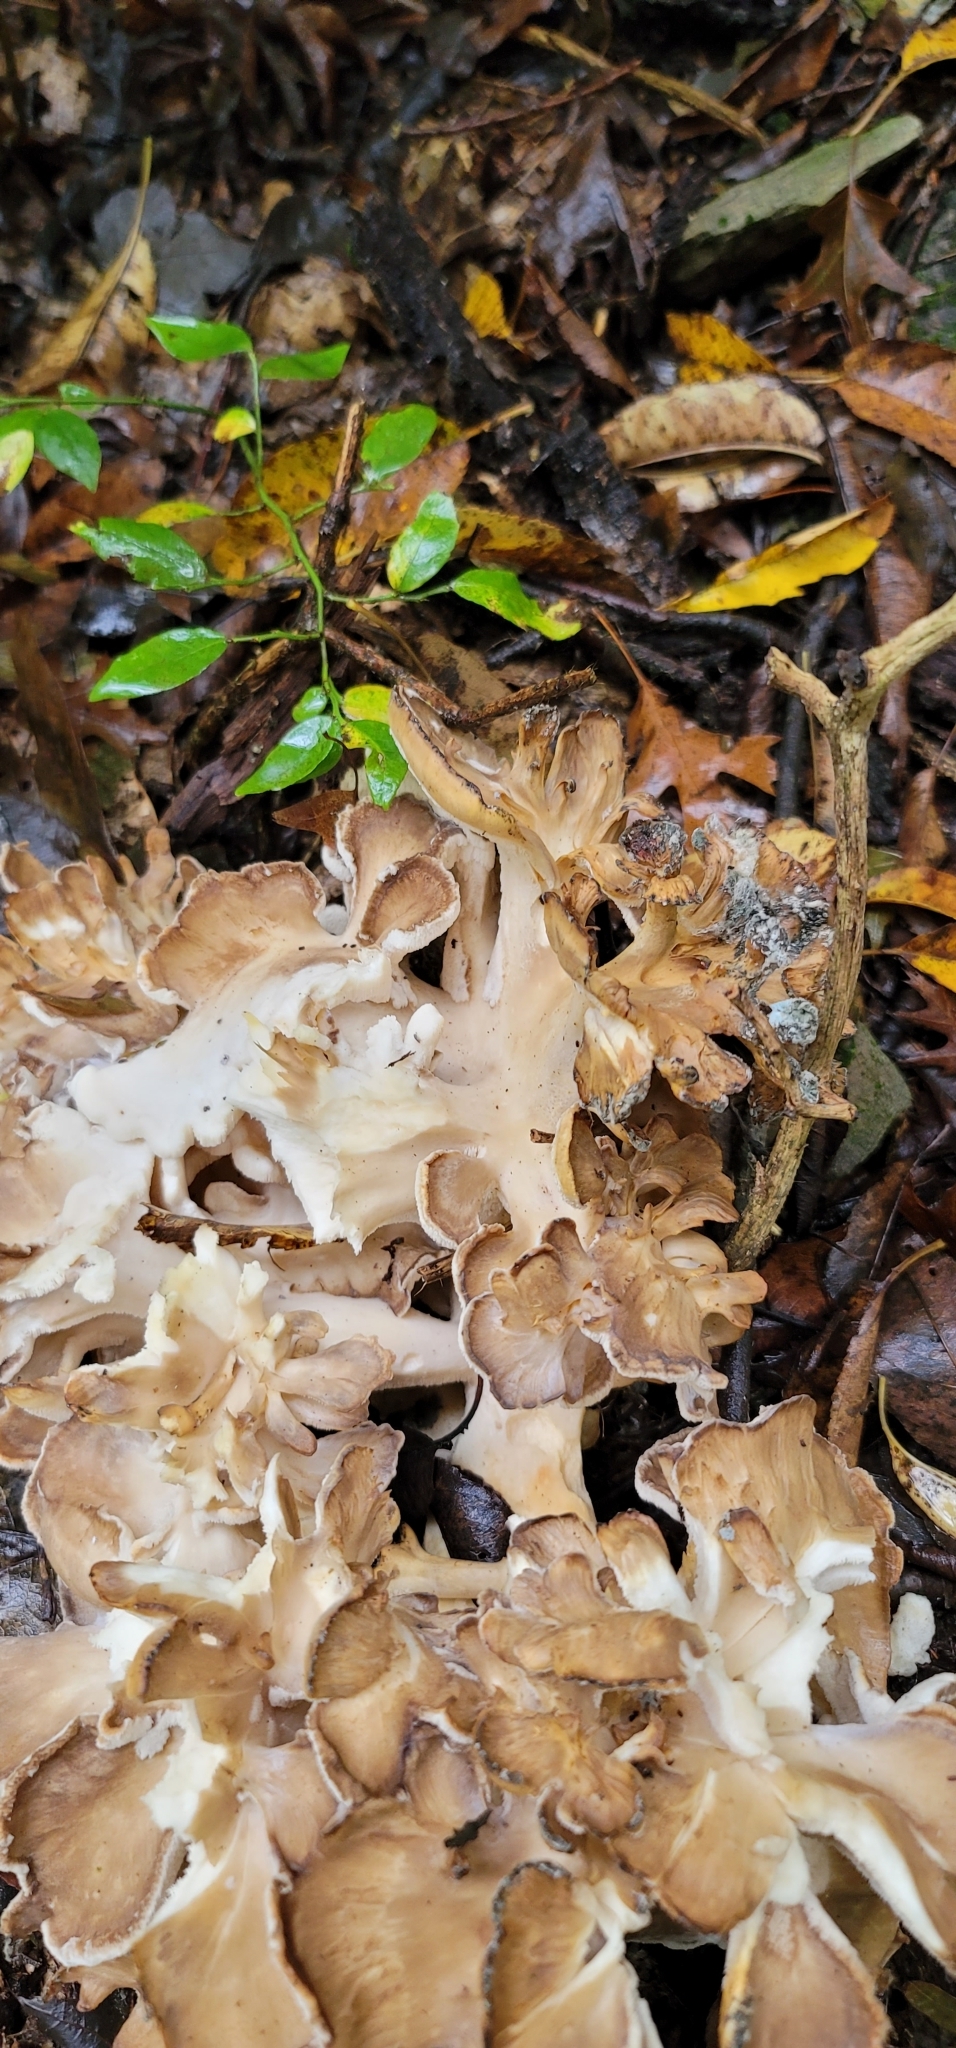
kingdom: Fungi
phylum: Basidiomycota
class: Agaricomycetes
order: Polyporales
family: Grifolaceae
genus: Grifola
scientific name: Grifola frondosa
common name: Hen of the woods
